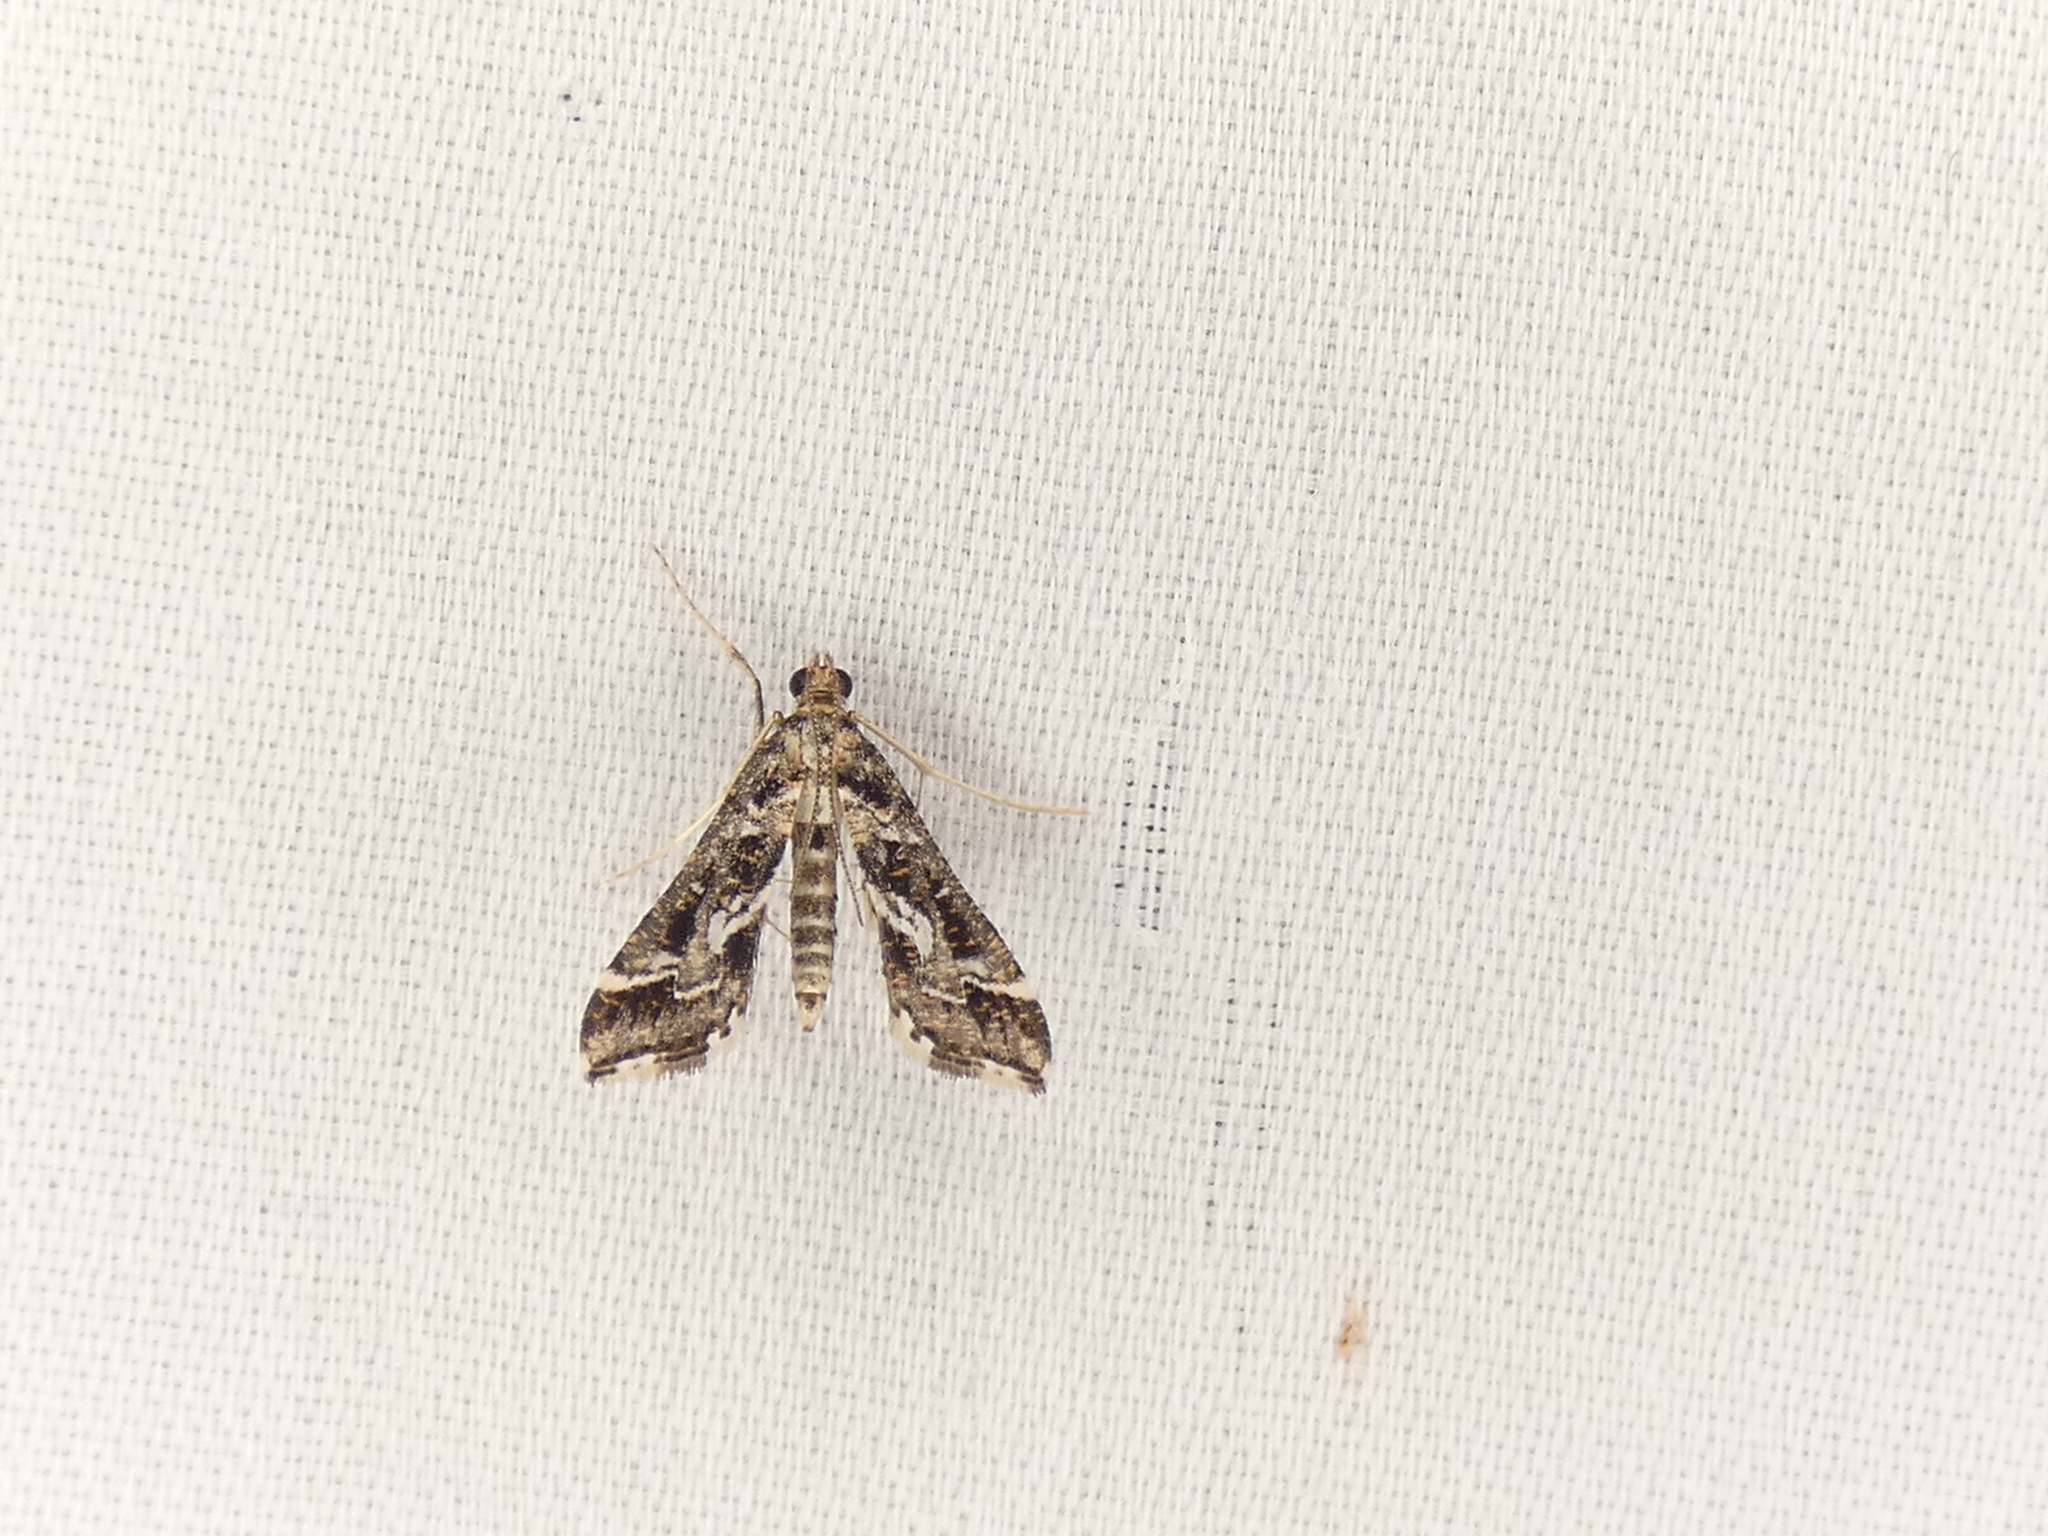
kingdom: Animalia
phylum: Arthropoda
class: Insecta
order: Lepidoptera
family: Crambidae
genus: Diasemiopsis
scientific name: Diasemiopsis ramburialis
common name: Vagrant china-mark
